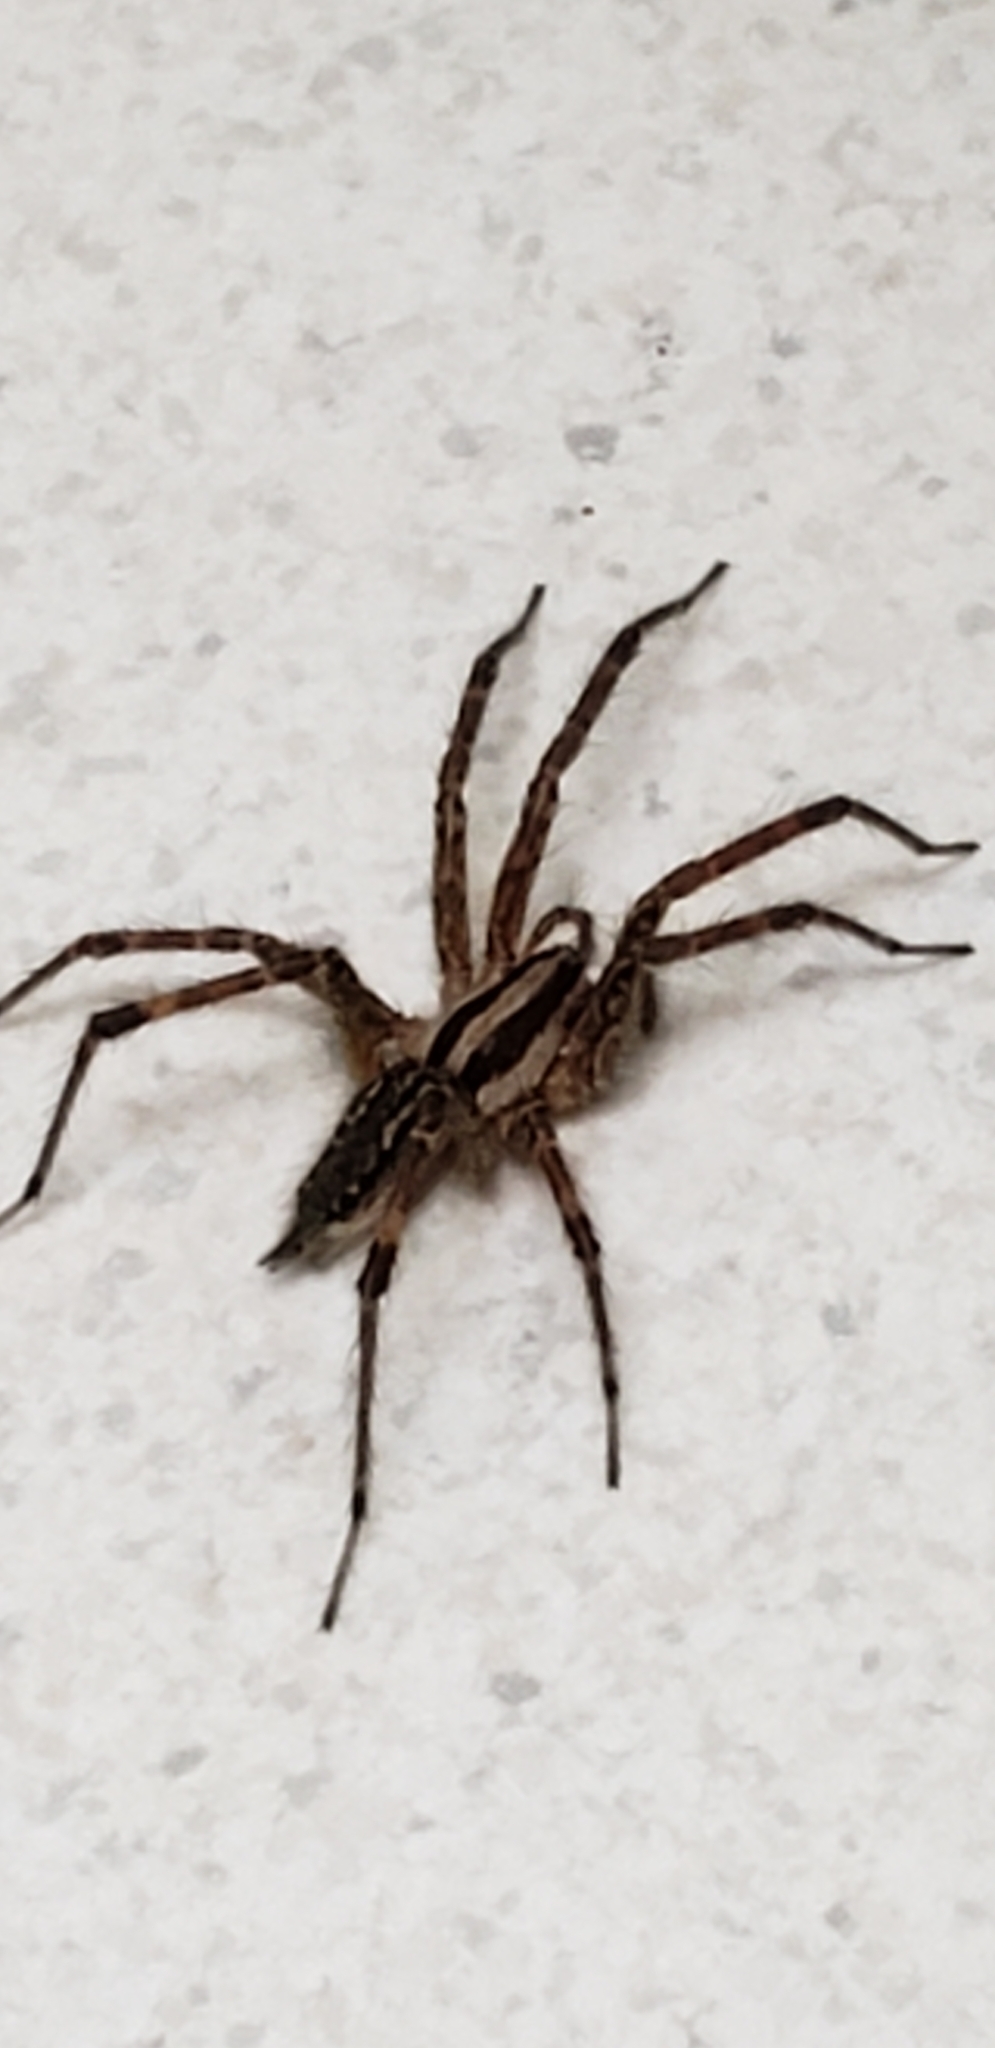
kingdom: Animalia
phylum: Arthropoda
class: Arachnida
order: Araneae
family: Lycosidae
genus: Rabidosa
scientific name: Rabidosa rabida
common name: Rabid wolf spider
